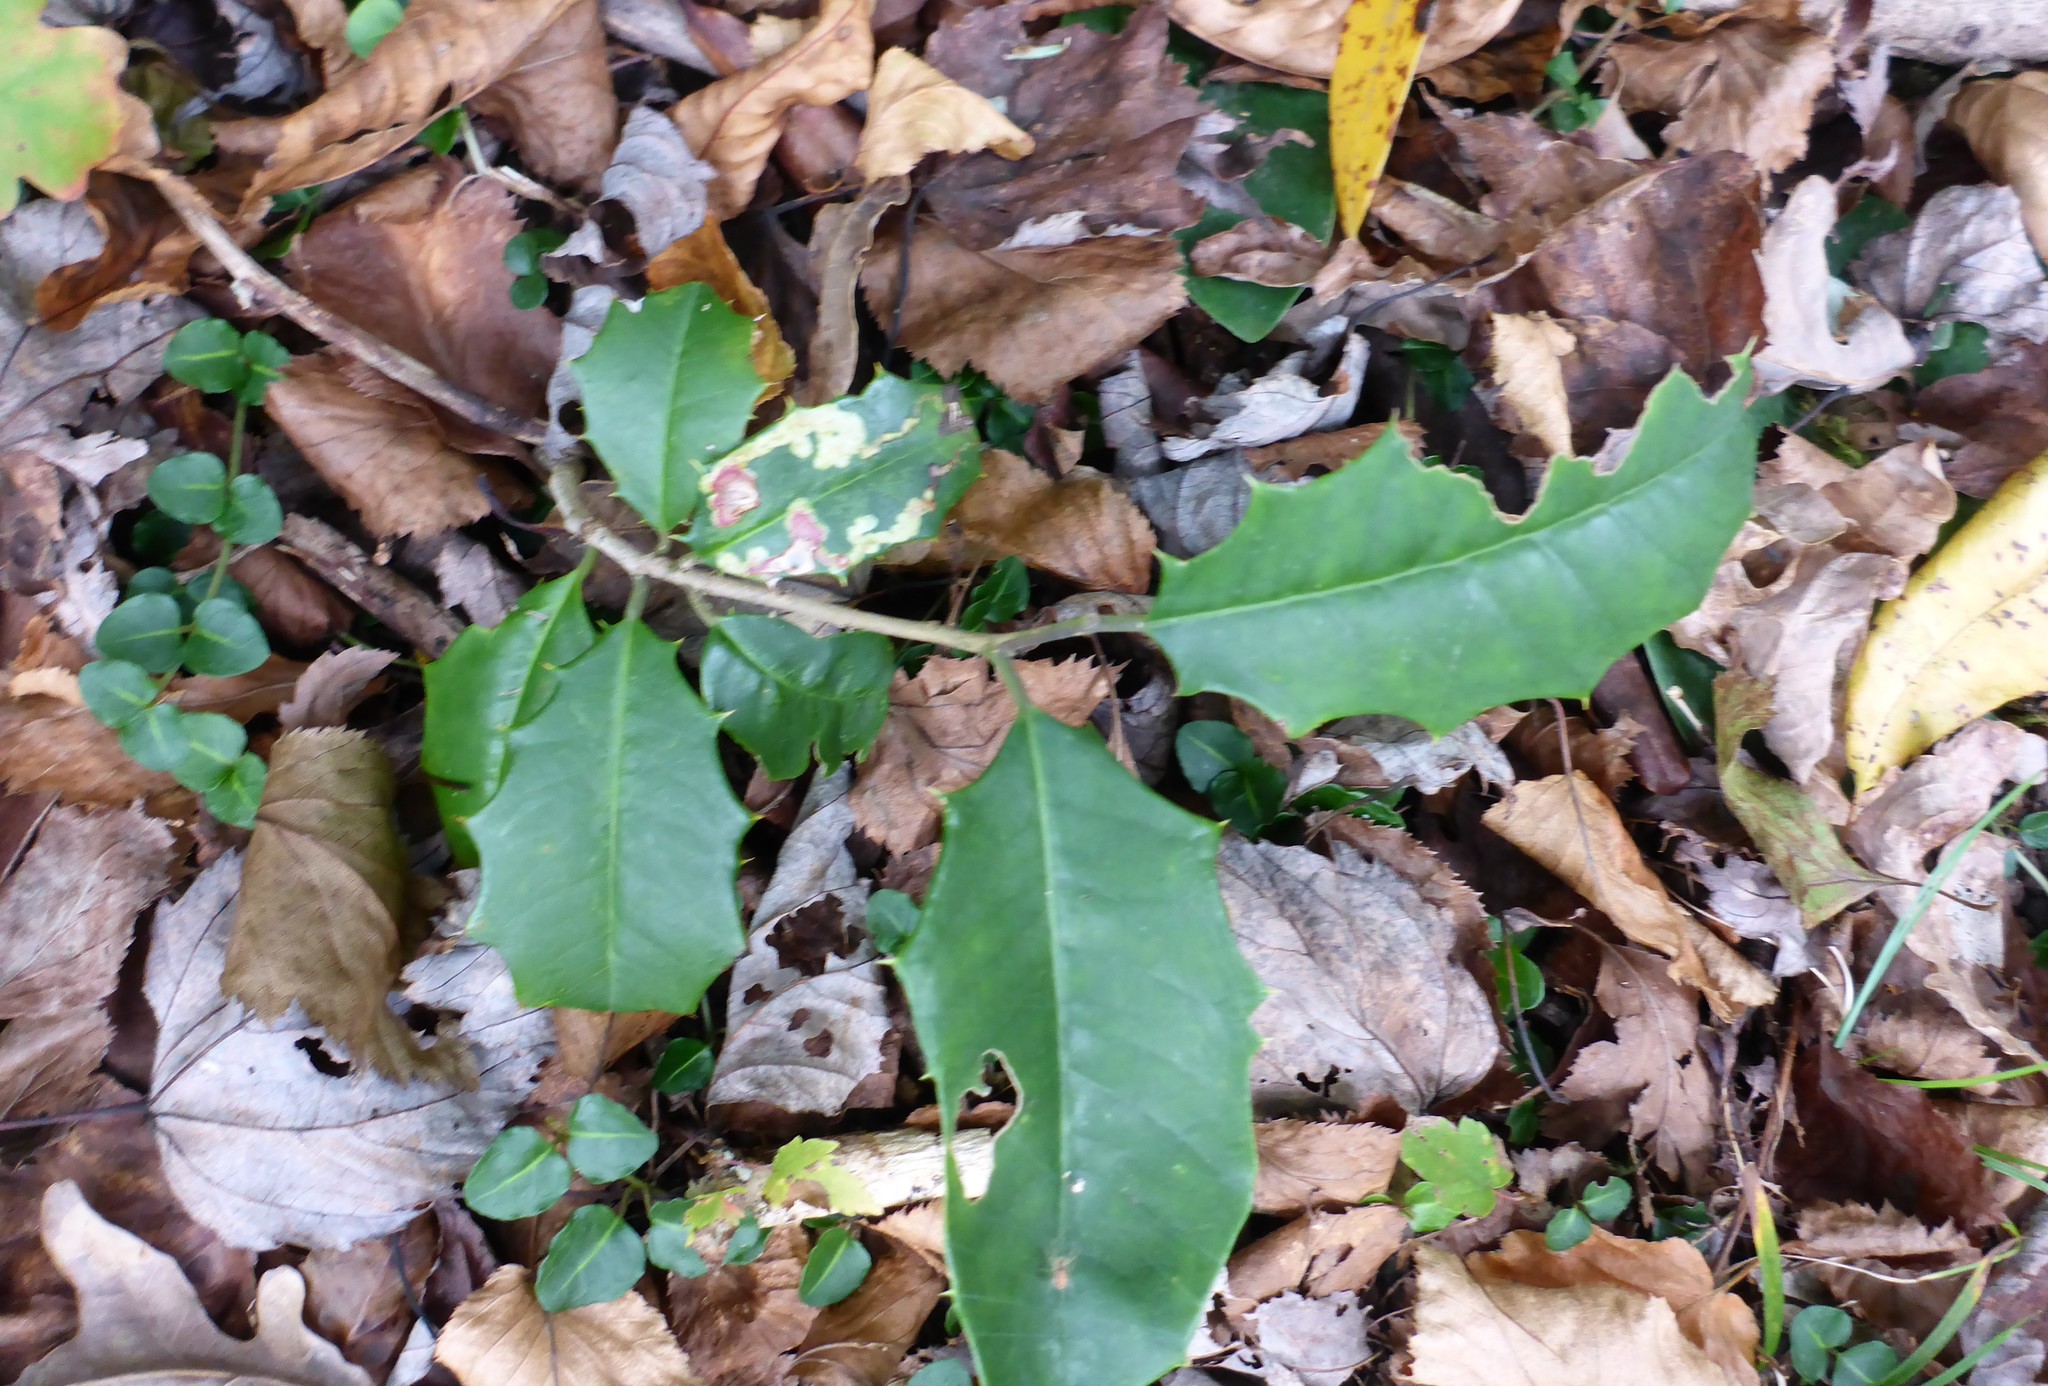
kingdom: Plantae
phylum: Tracheophyta
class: Magnoliopsida
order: Aquifoliales
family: Aquifoliaceae
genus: Ilex
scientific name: Ilex opaca
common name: American holly
